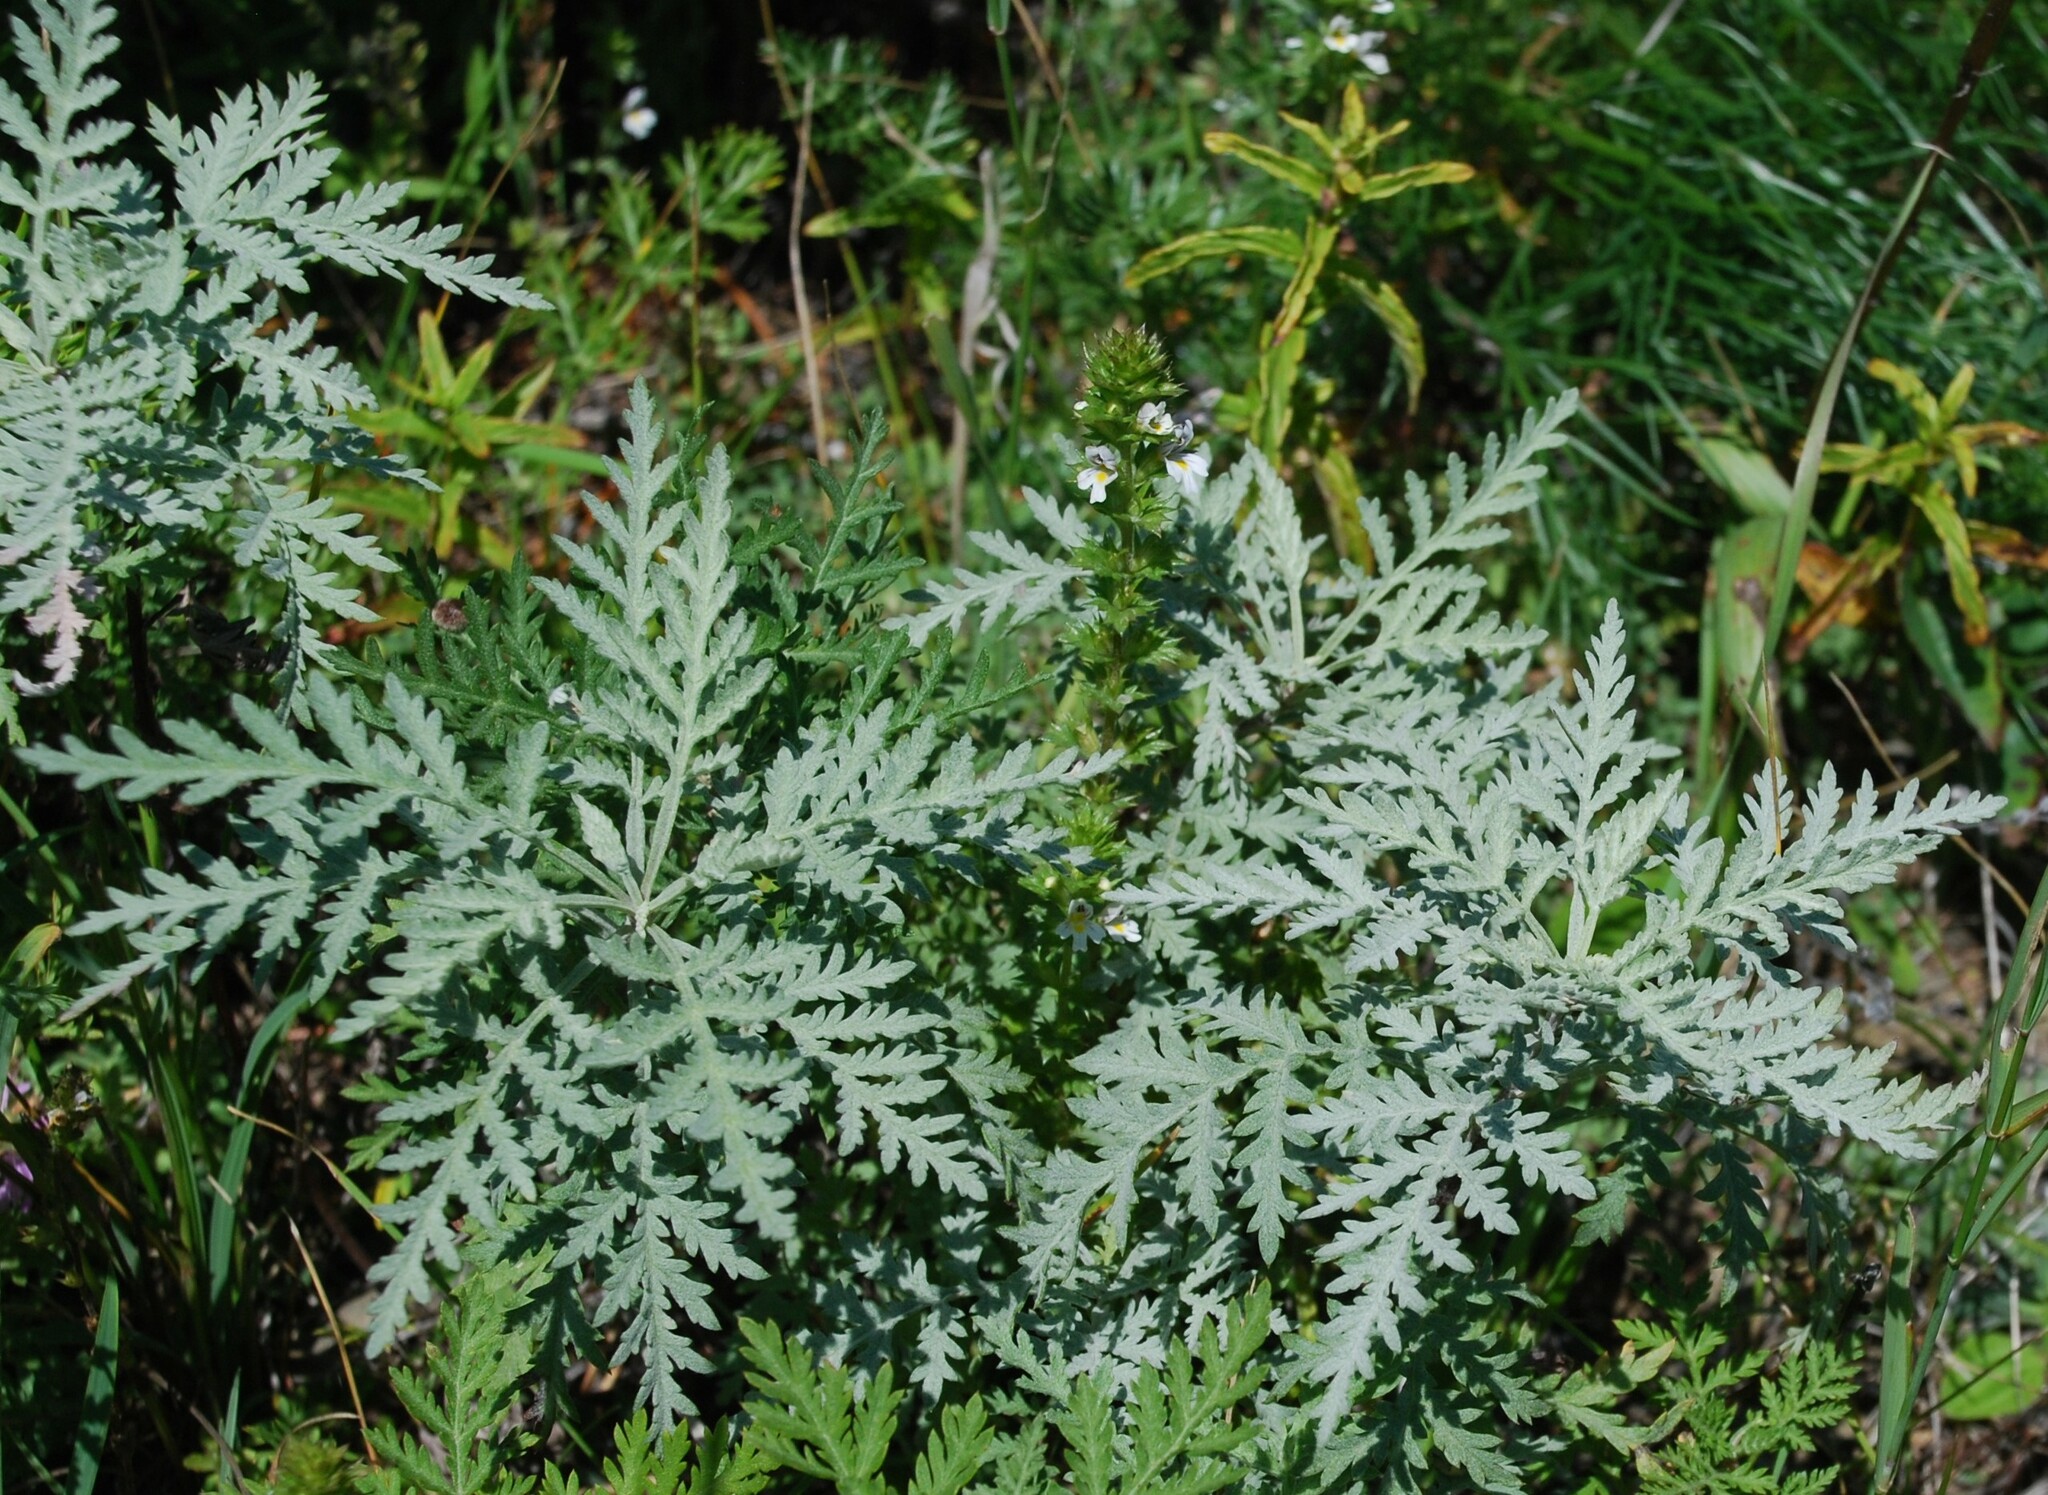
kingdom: Plantae
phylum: Tracheophyta
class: Magnoliopsida
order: Asterales
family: Asteraceae
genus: Artemisia
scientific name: Artemisia gmelinii
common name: Gmelin's wormwood
